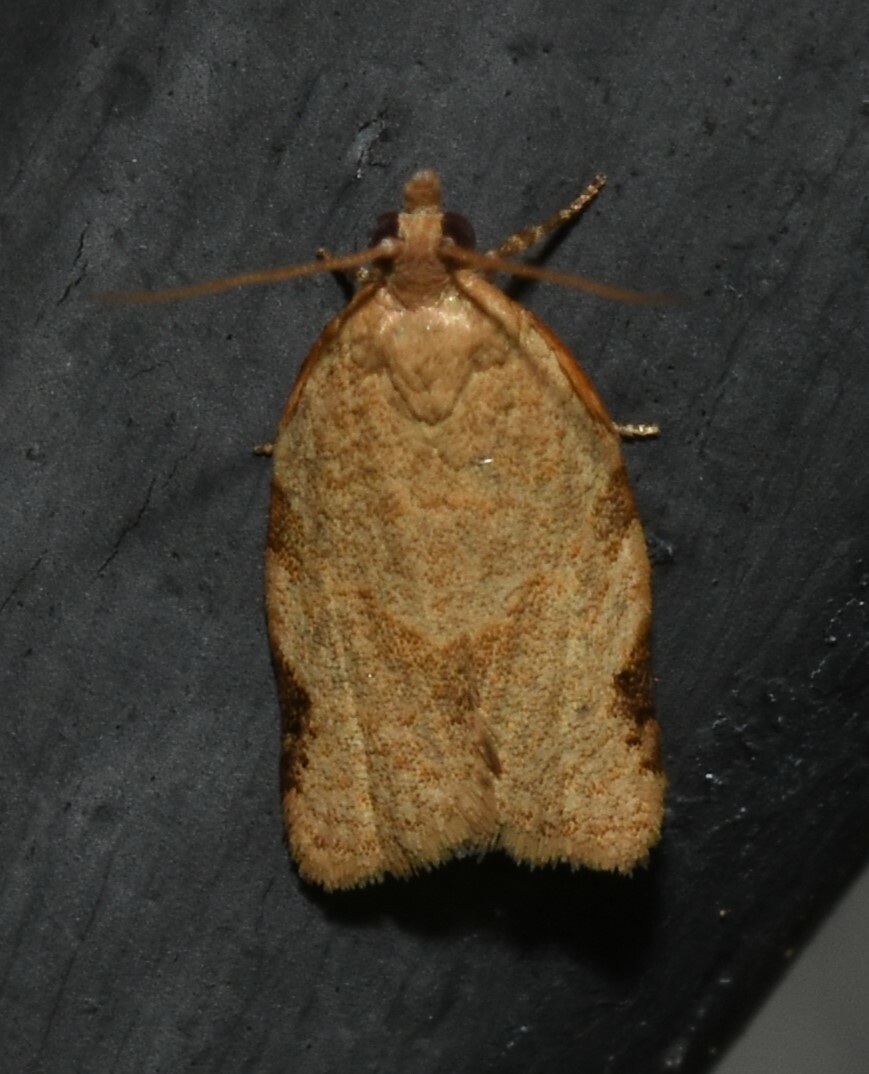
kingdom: Animalia
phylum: Arthropoda
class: Insecta
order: Lepidoptera
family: Tortricidae
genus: Clepsis
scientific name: Clepsis virescana
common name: Greenish apple moth
